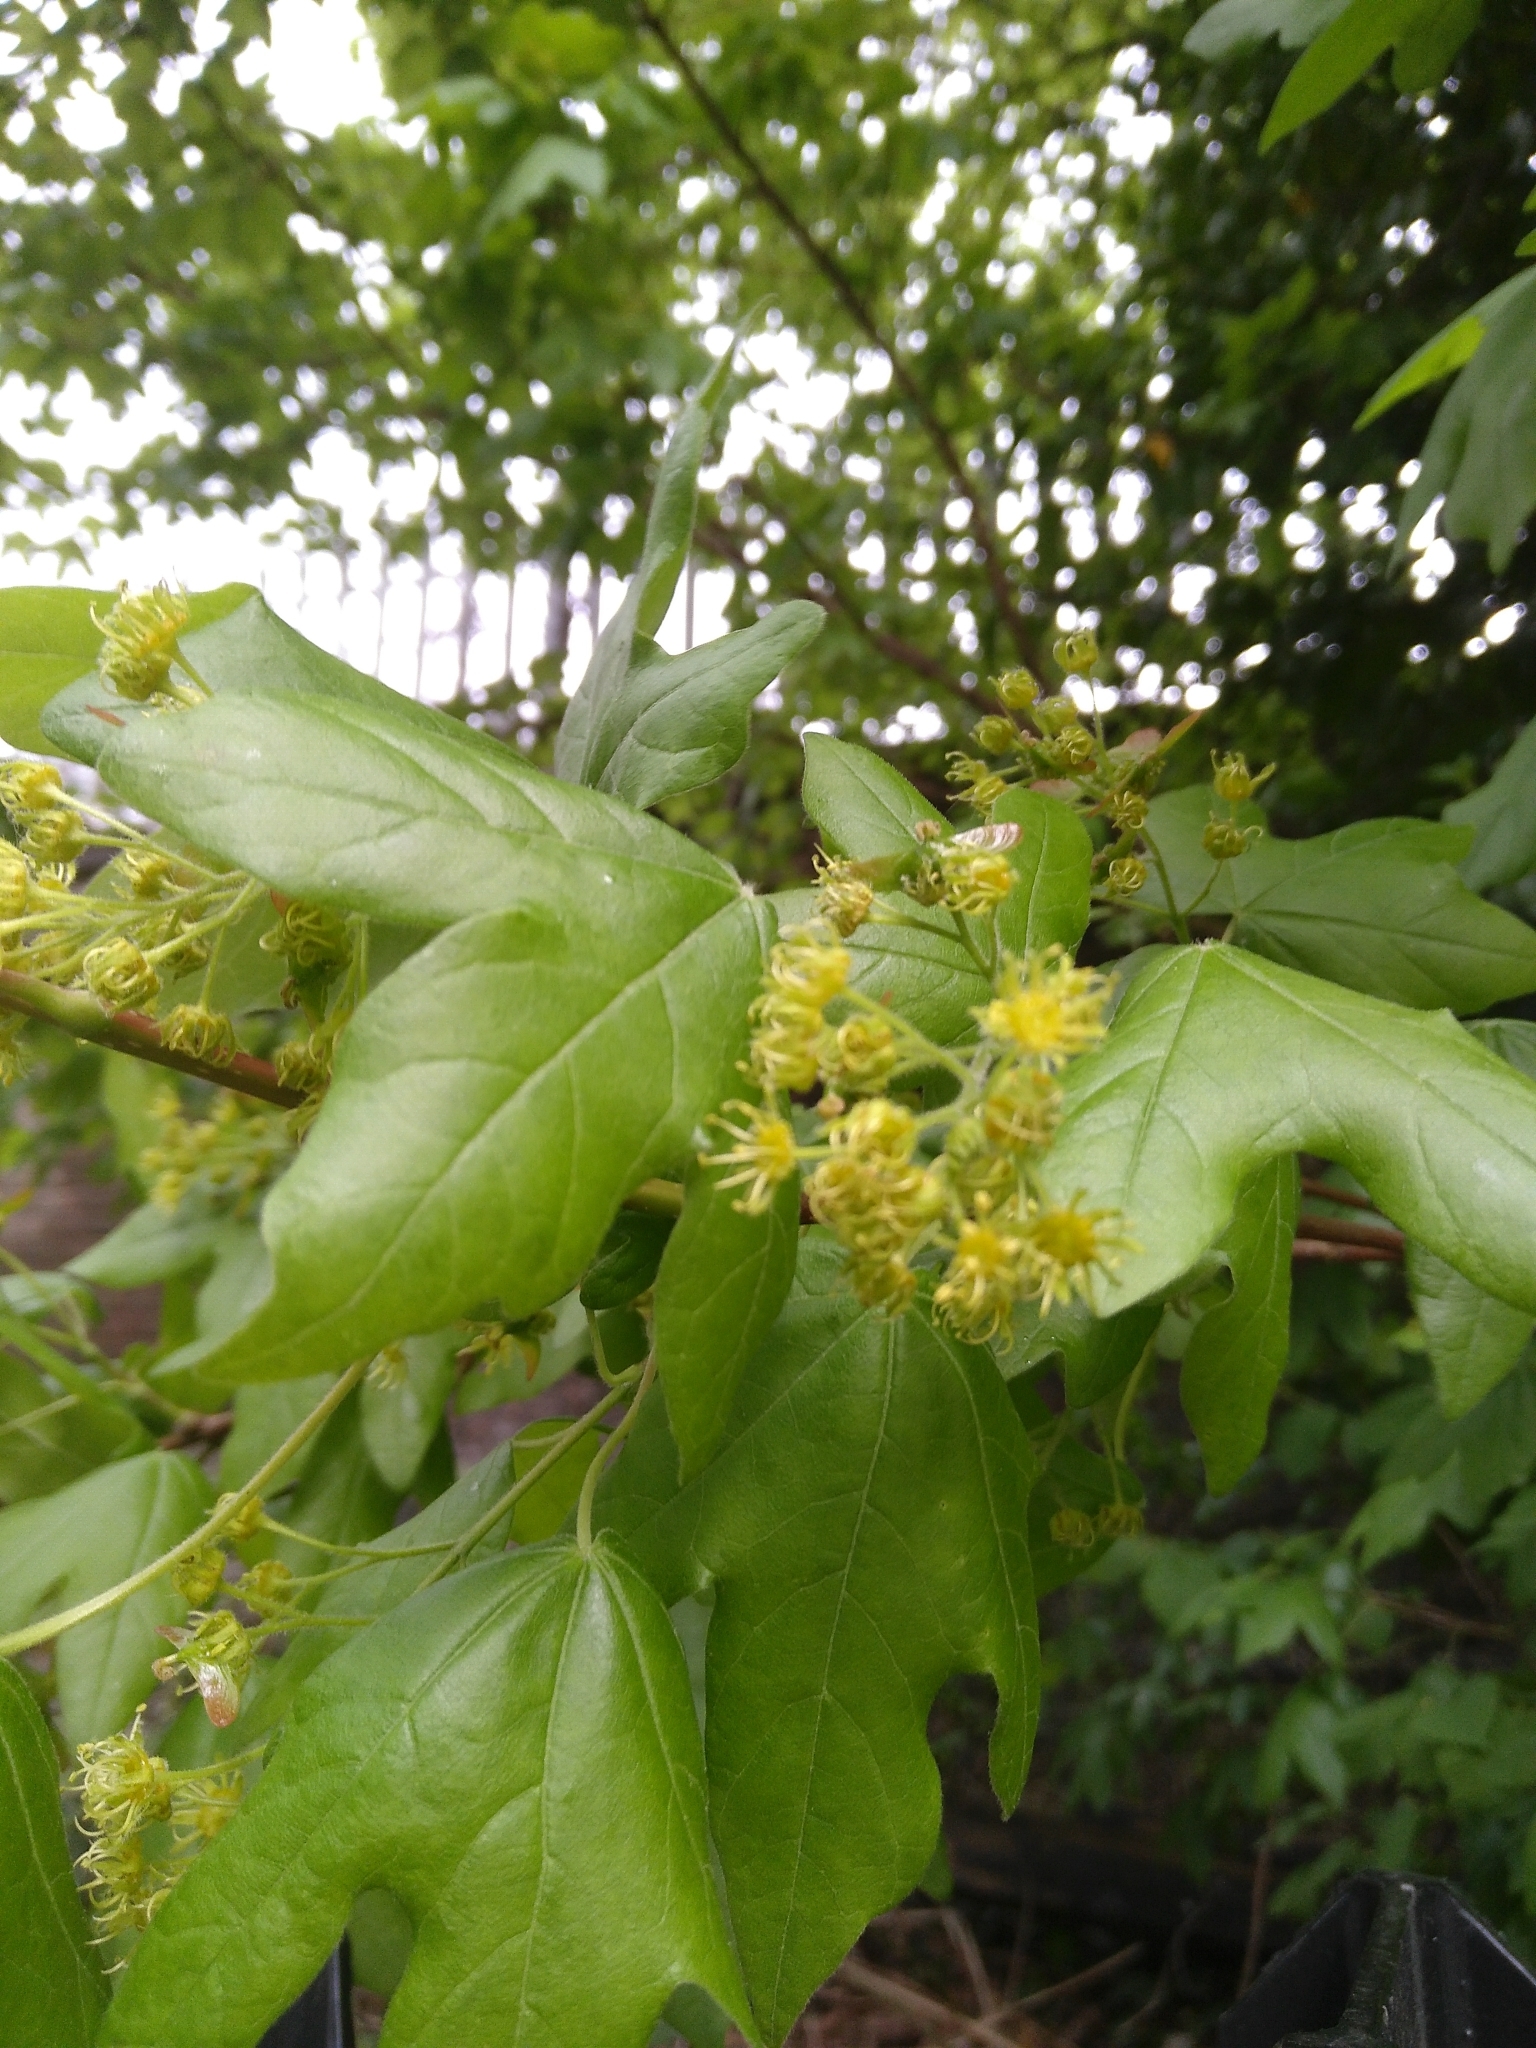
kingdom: Plantae
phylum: Tracheophyta
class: Magnoliopsida
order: Sapindales
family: Sapindaceae
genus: Acer
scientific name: Acer campestre
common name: Field maple
